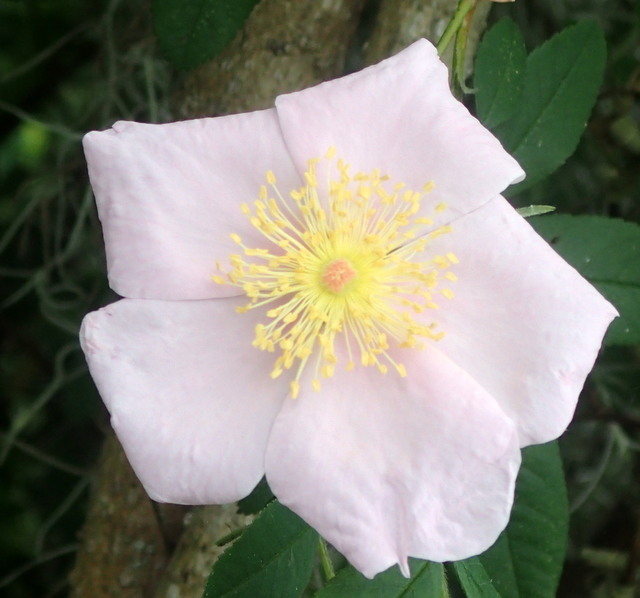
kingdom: Plantae
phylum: Tracheophyta
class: Magnoliopsida
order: Rosales
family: Rosaceae
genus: Rosa
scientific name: Rosa palustris
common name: Swamp rose
